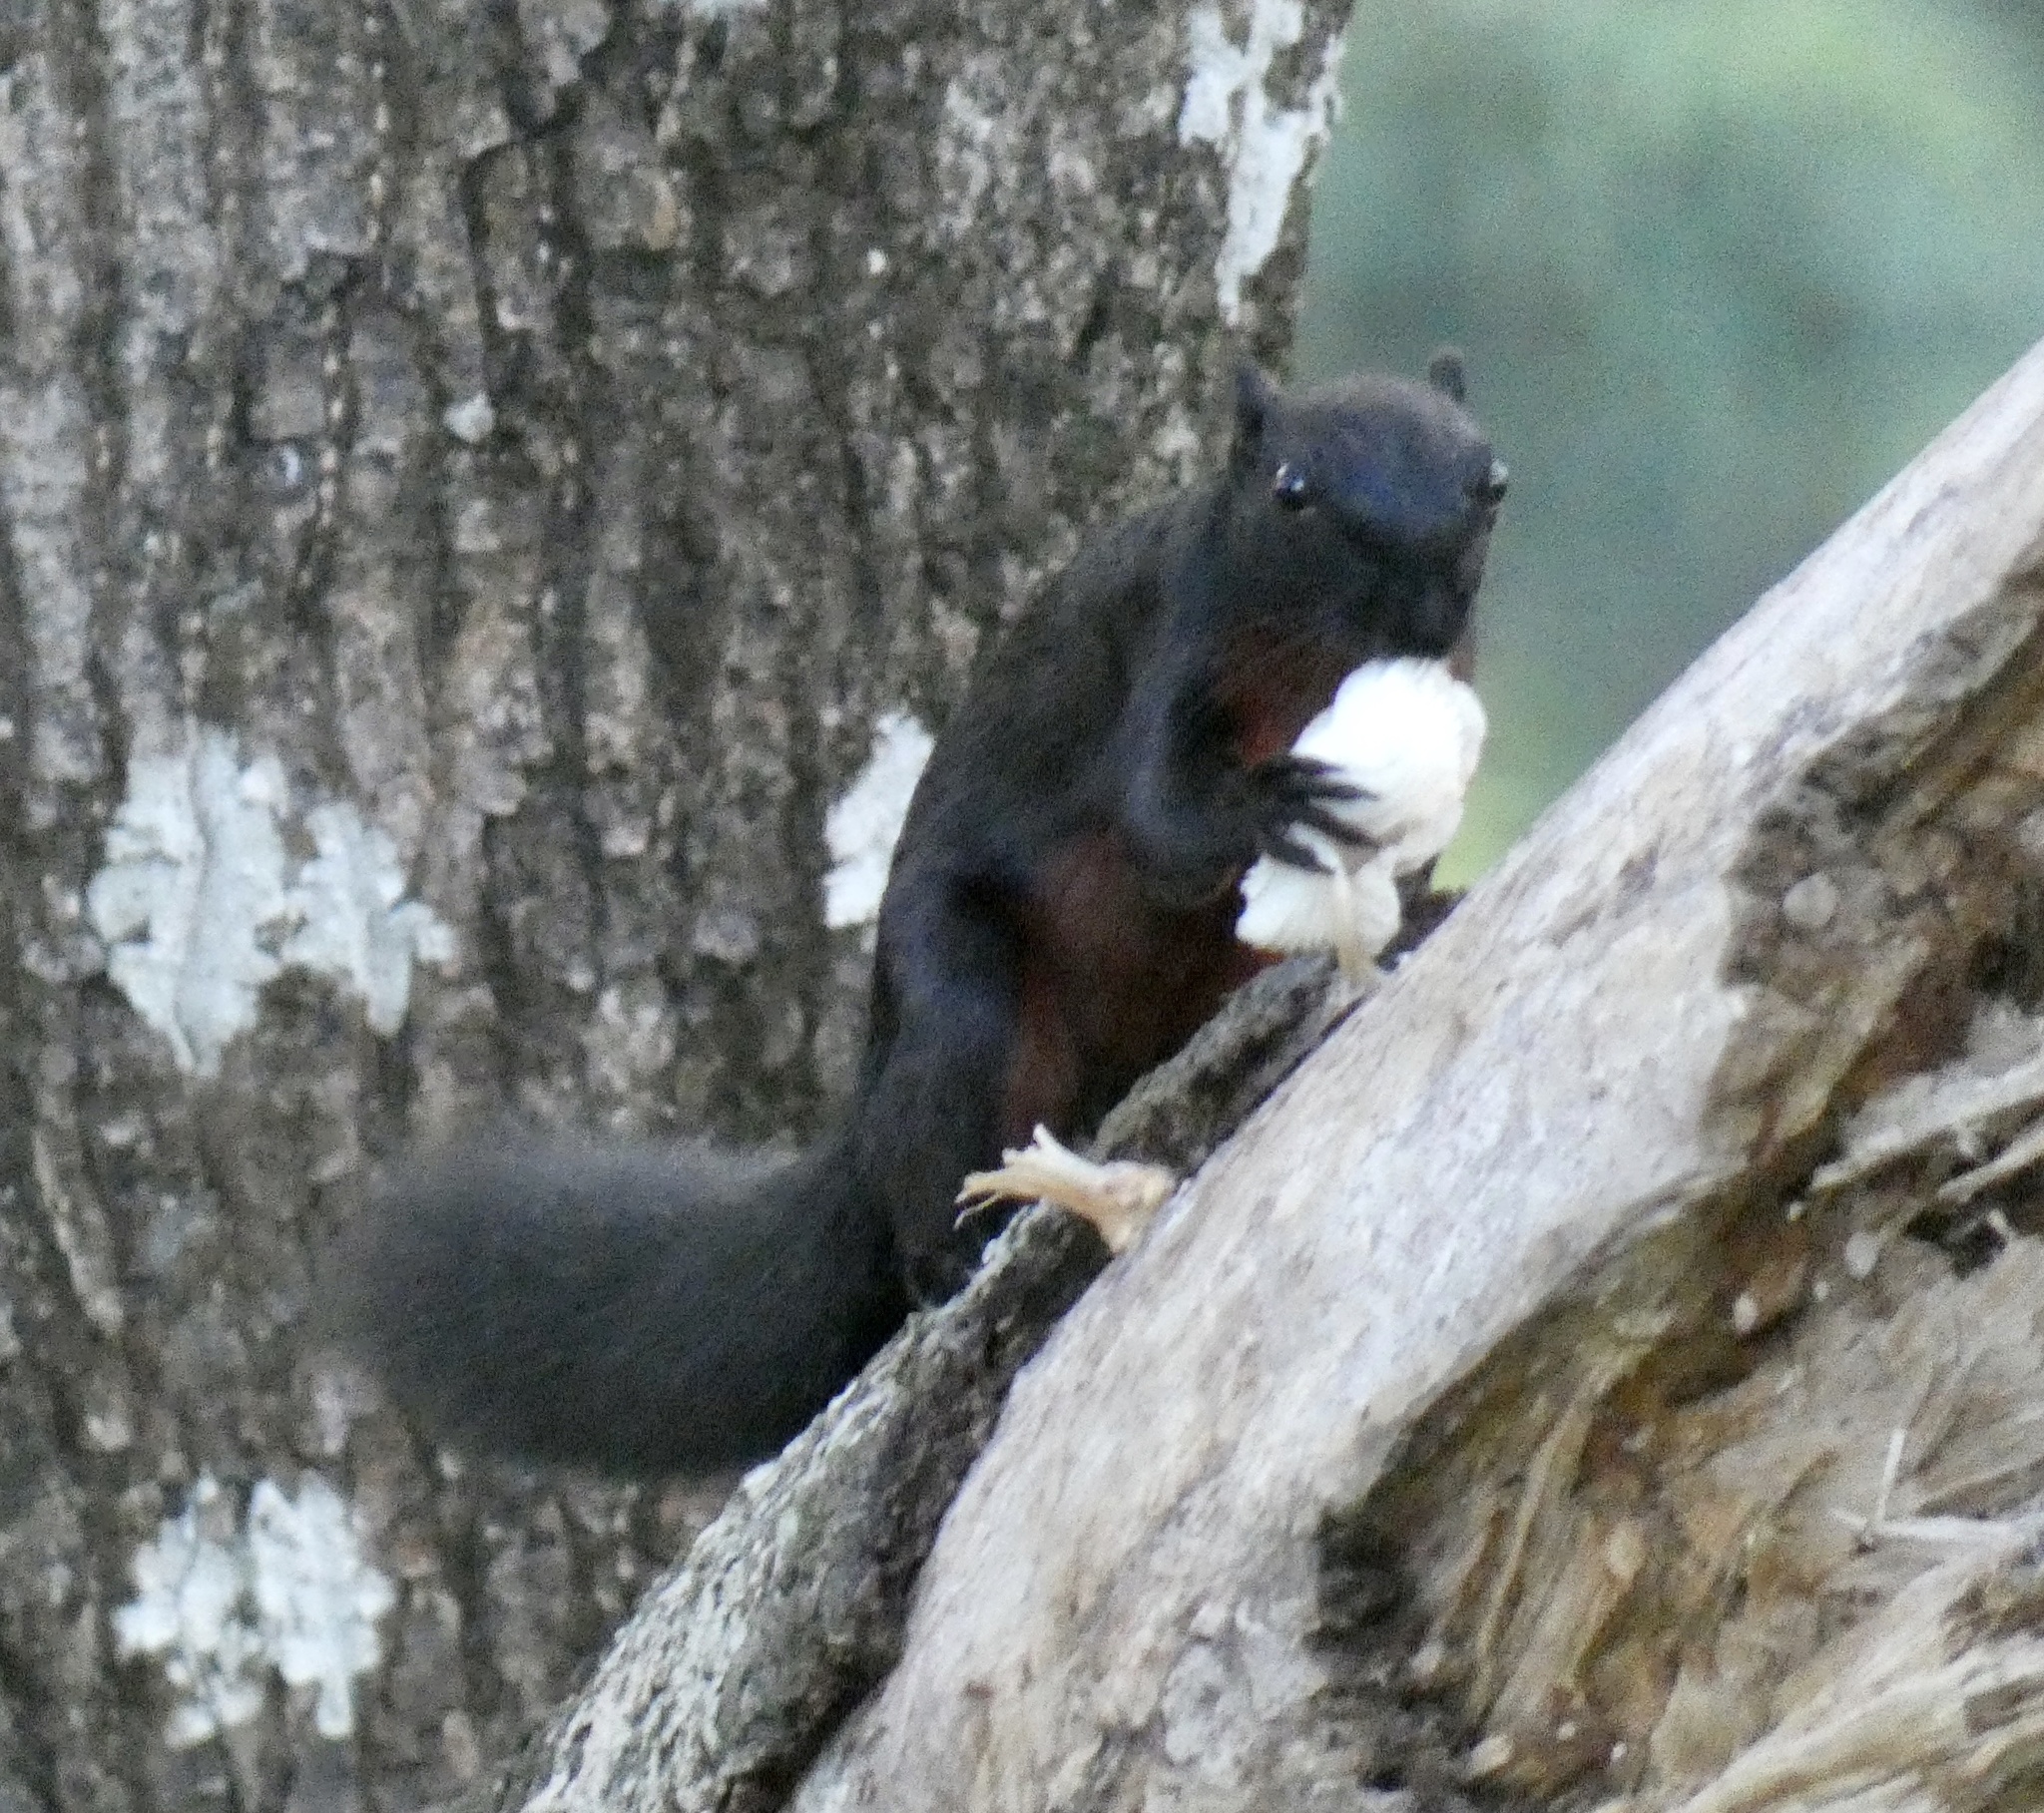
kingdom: Animalia
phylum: Chordata
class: Mammalia
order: Rodentia
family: Sciuridae
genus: Callosciurus
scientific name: Callosciurus prevostii
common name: Prevost's squirrel
